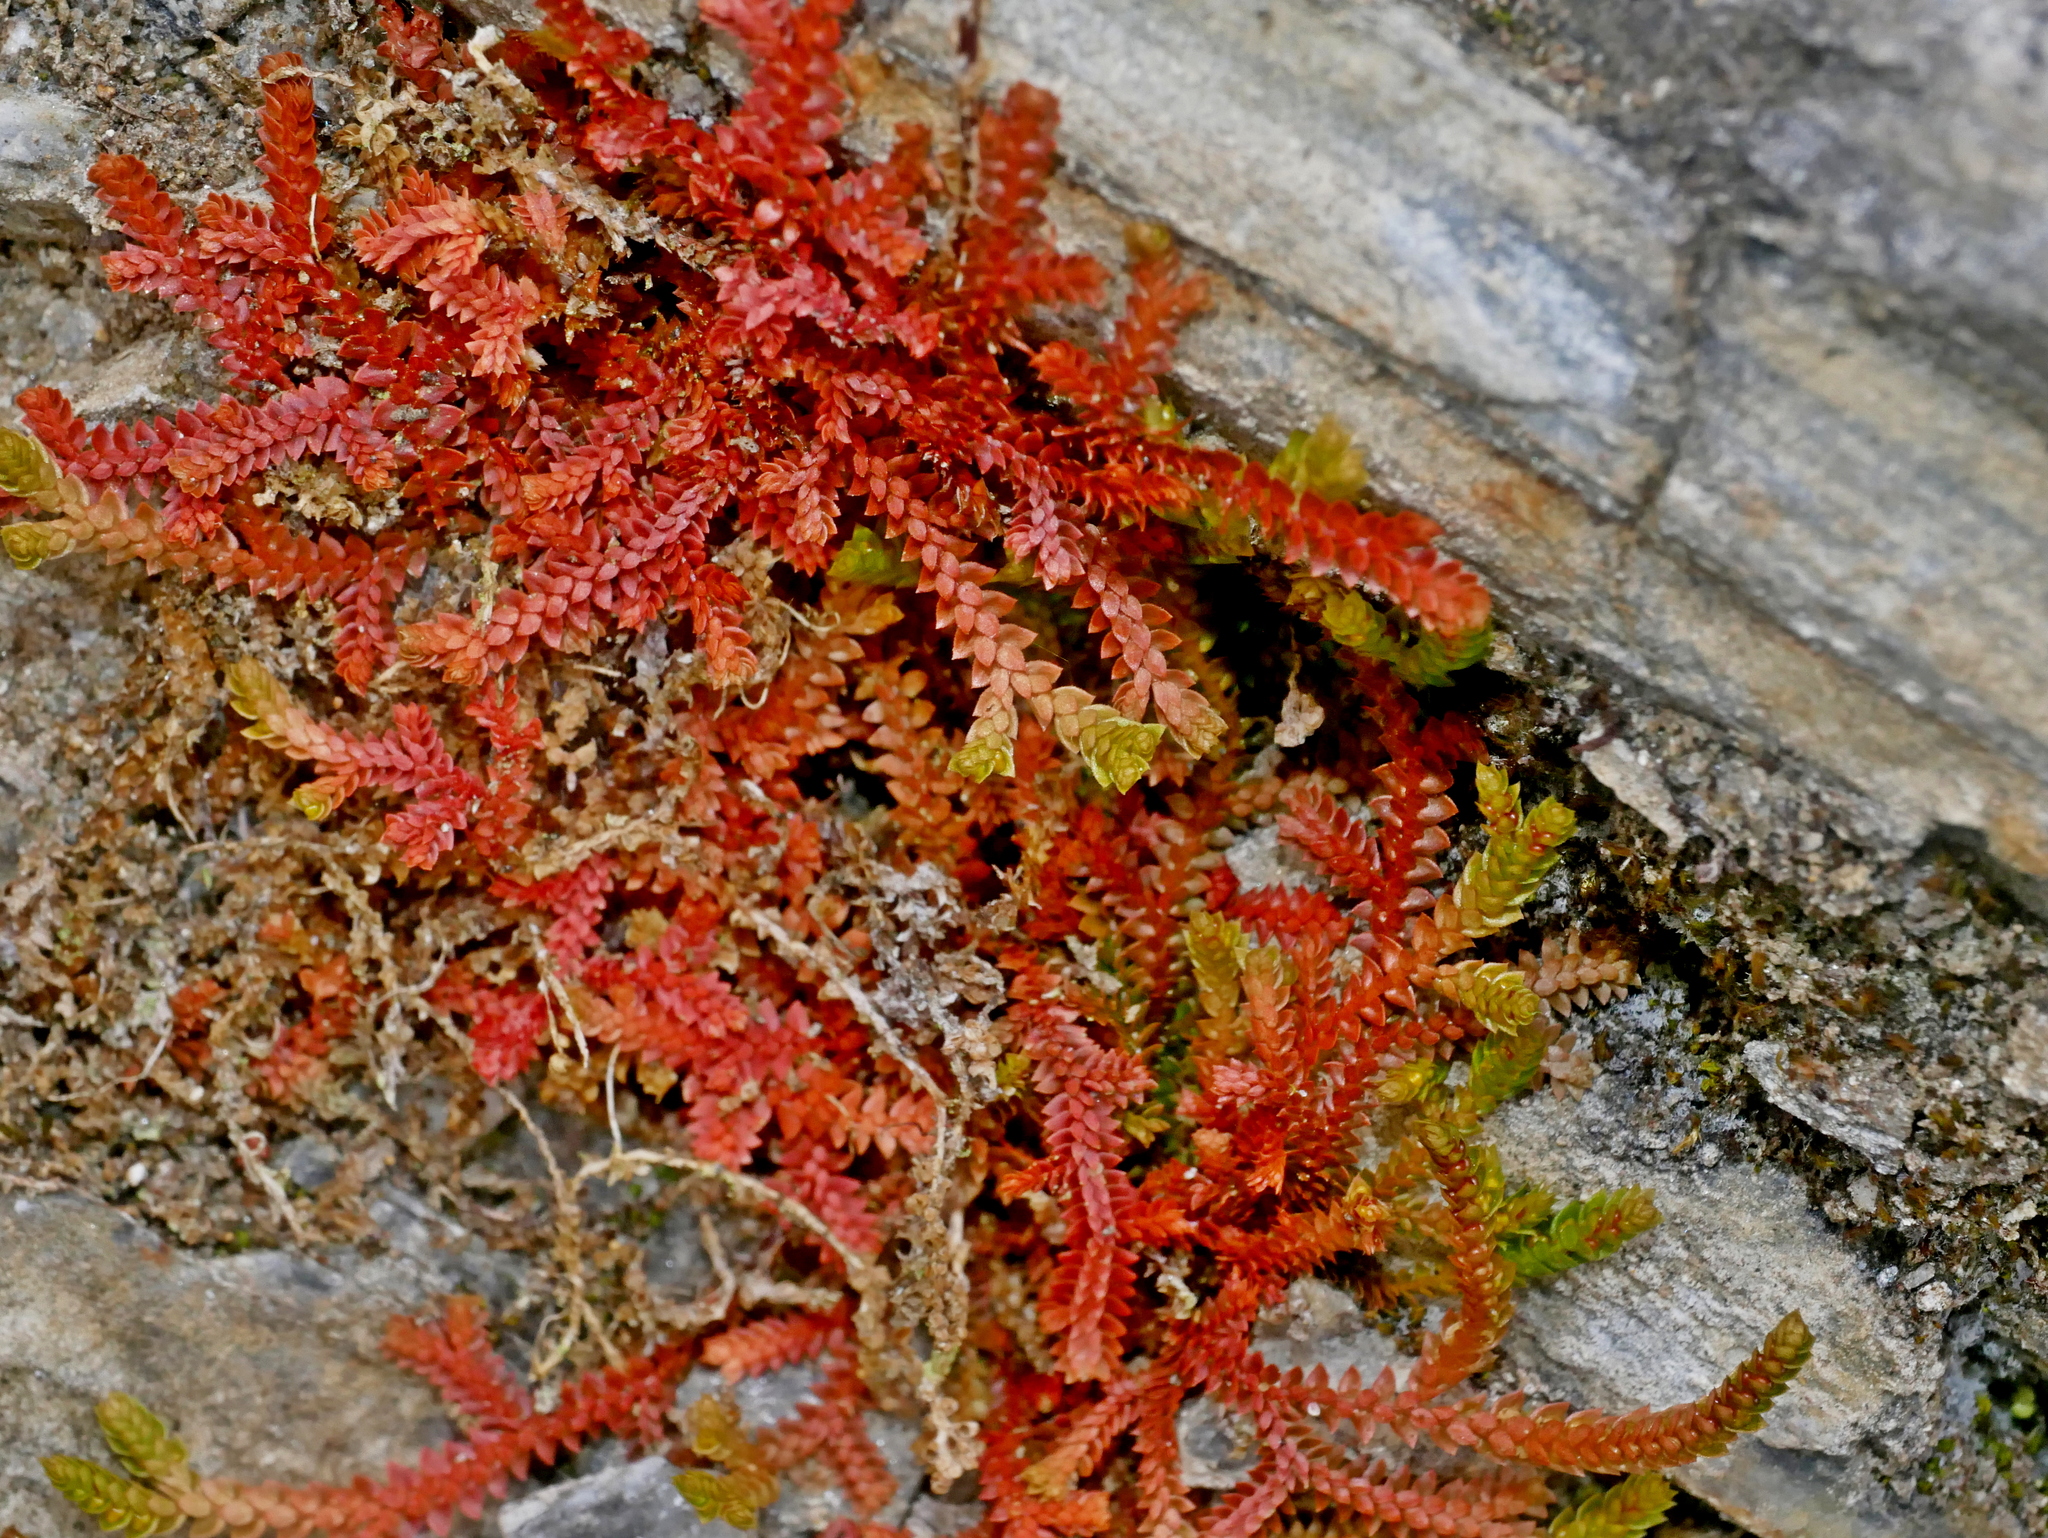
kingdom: Plantae
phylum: Tracheophyta
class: Lycopodiopsida
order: Selaginellales
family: Selaginellaceae
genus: Selaginella
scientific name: Selaginella pseudonipponica
